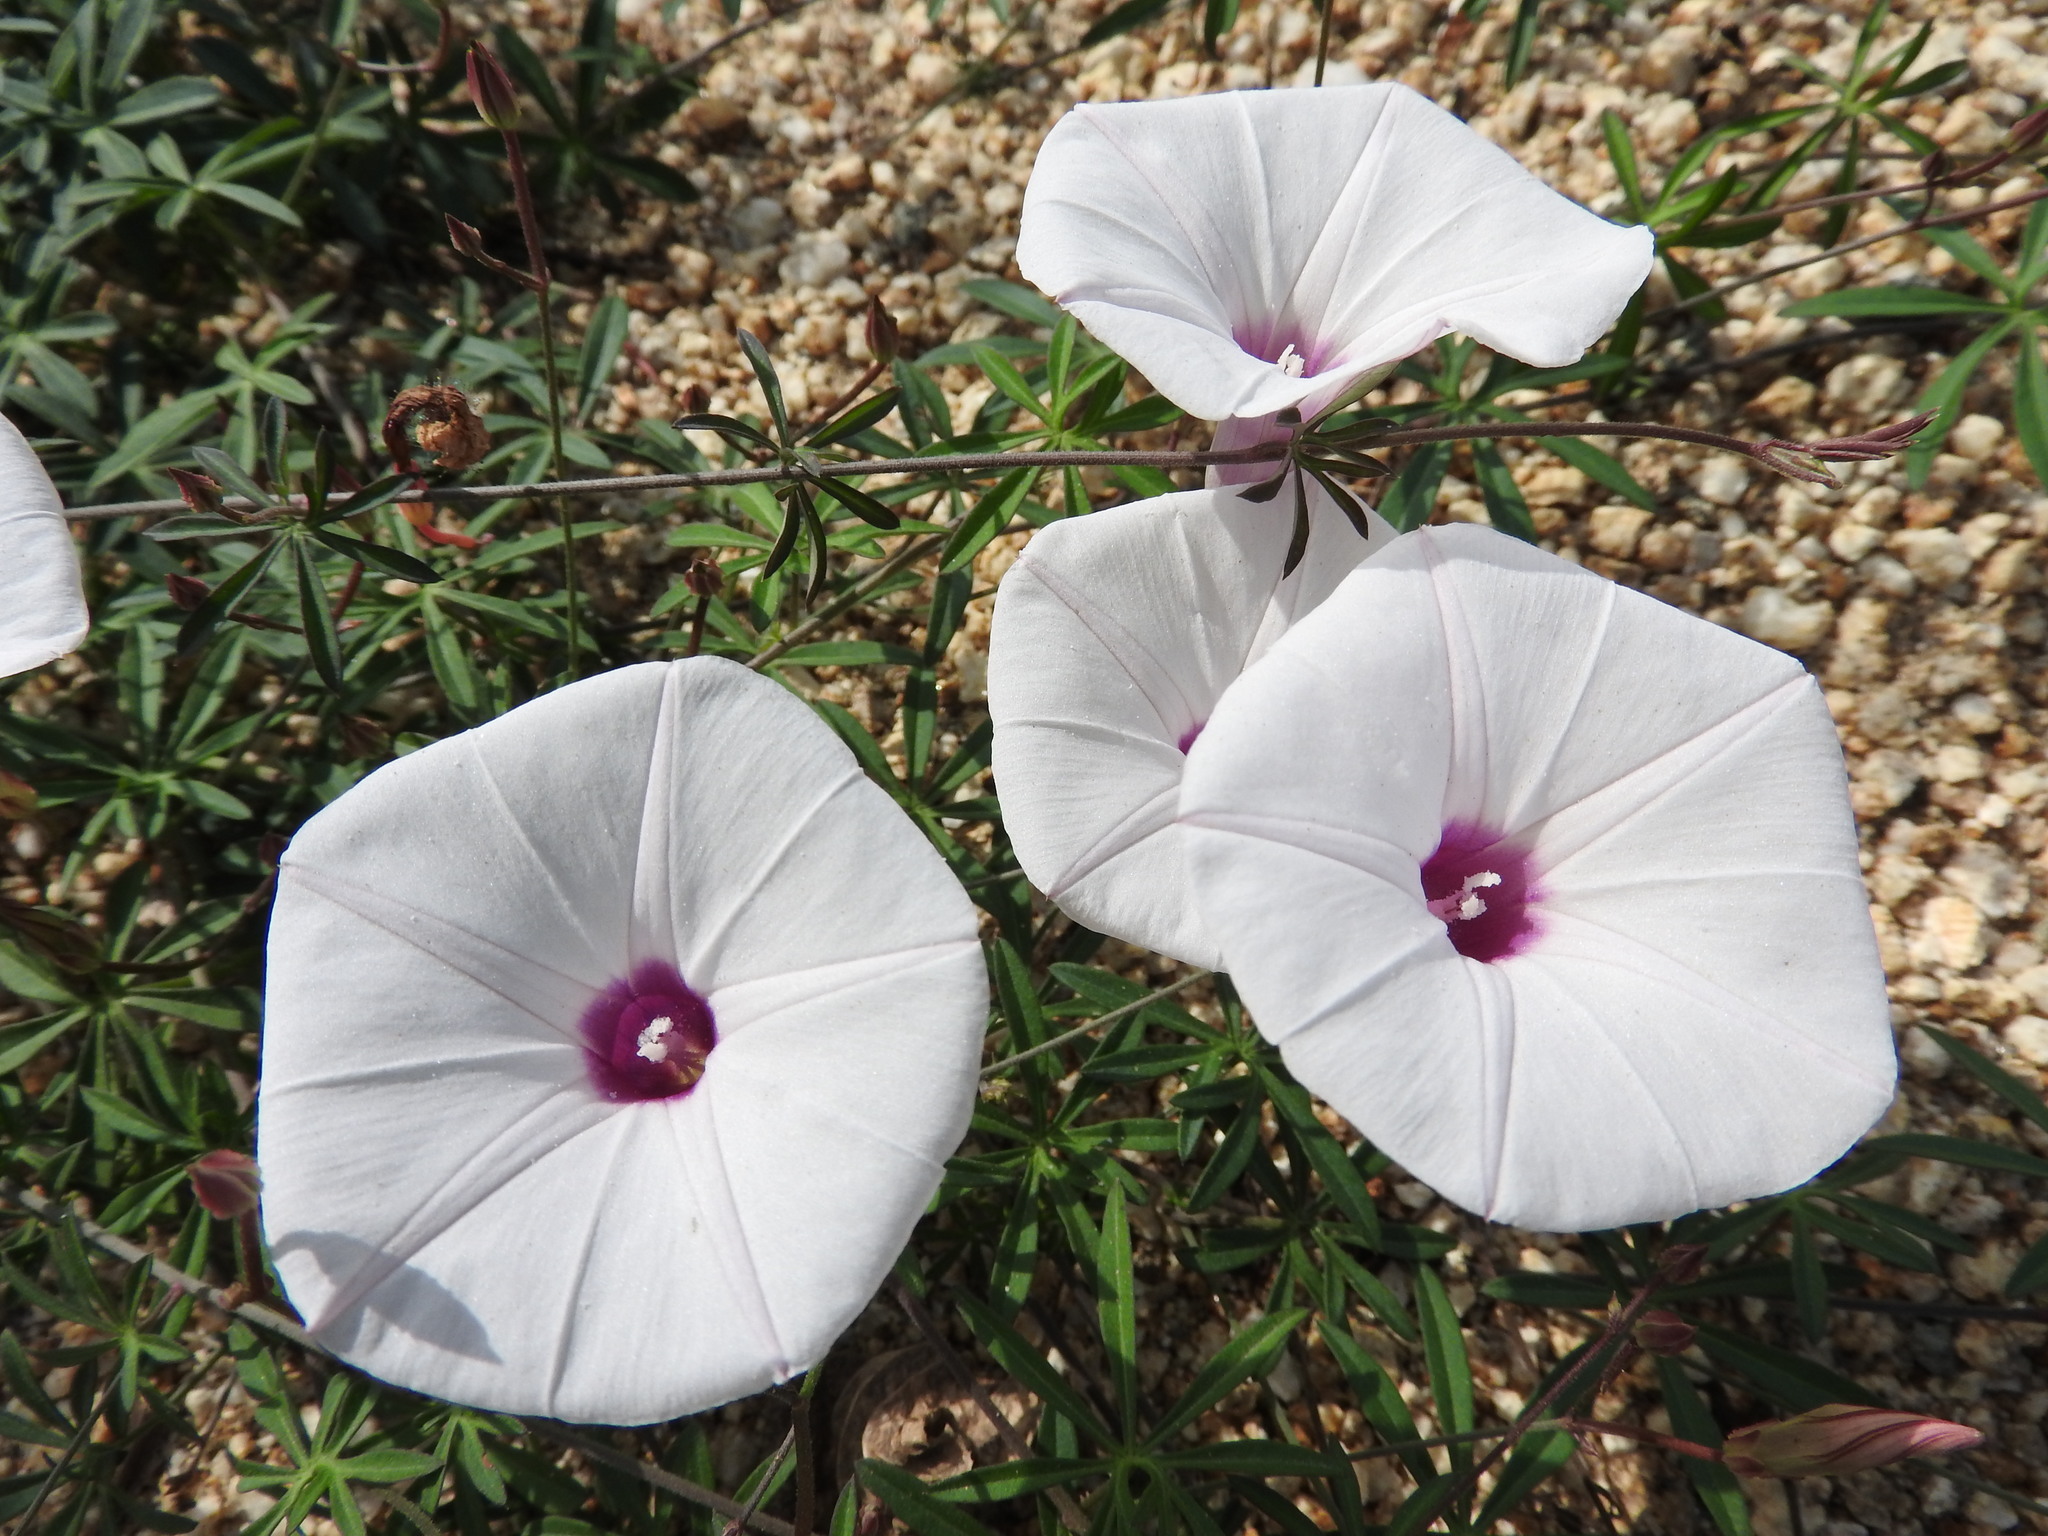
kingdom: Plantae
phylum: Tracheophyta
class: Magnoliopsida
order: Solanales
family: Convolvulaceae
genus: Ipomoea
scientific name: Ipomoea ternifolia
